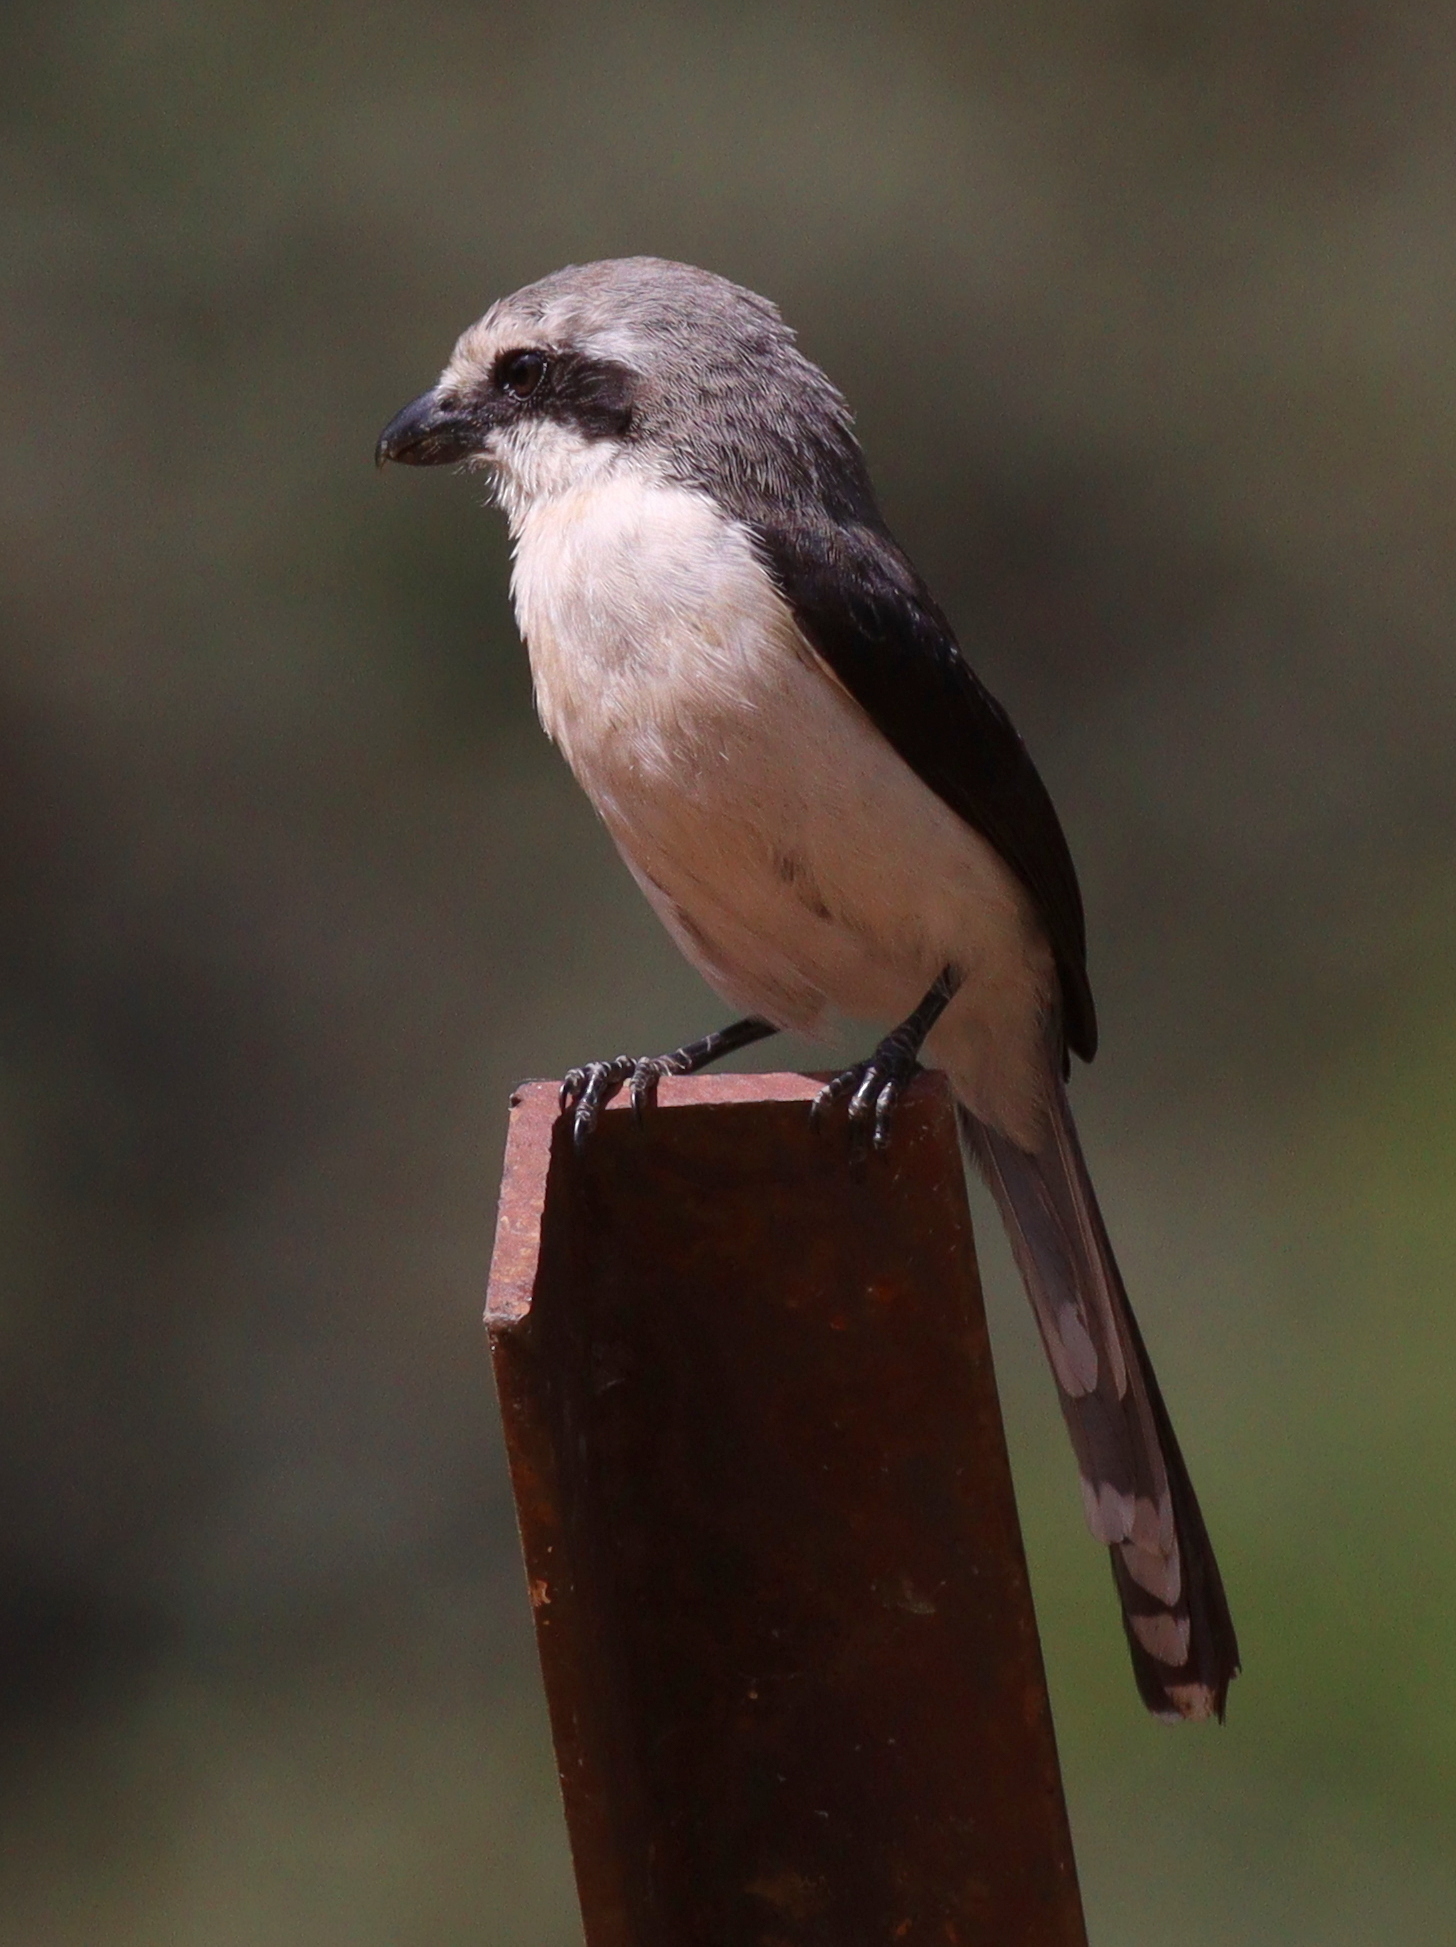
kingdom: Animalia
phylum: Chordata
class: Aves
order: Passeriformes
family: Laniidae
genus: Lanius
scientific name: Lanius mackinnoni
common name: Mackinnon's shrike
